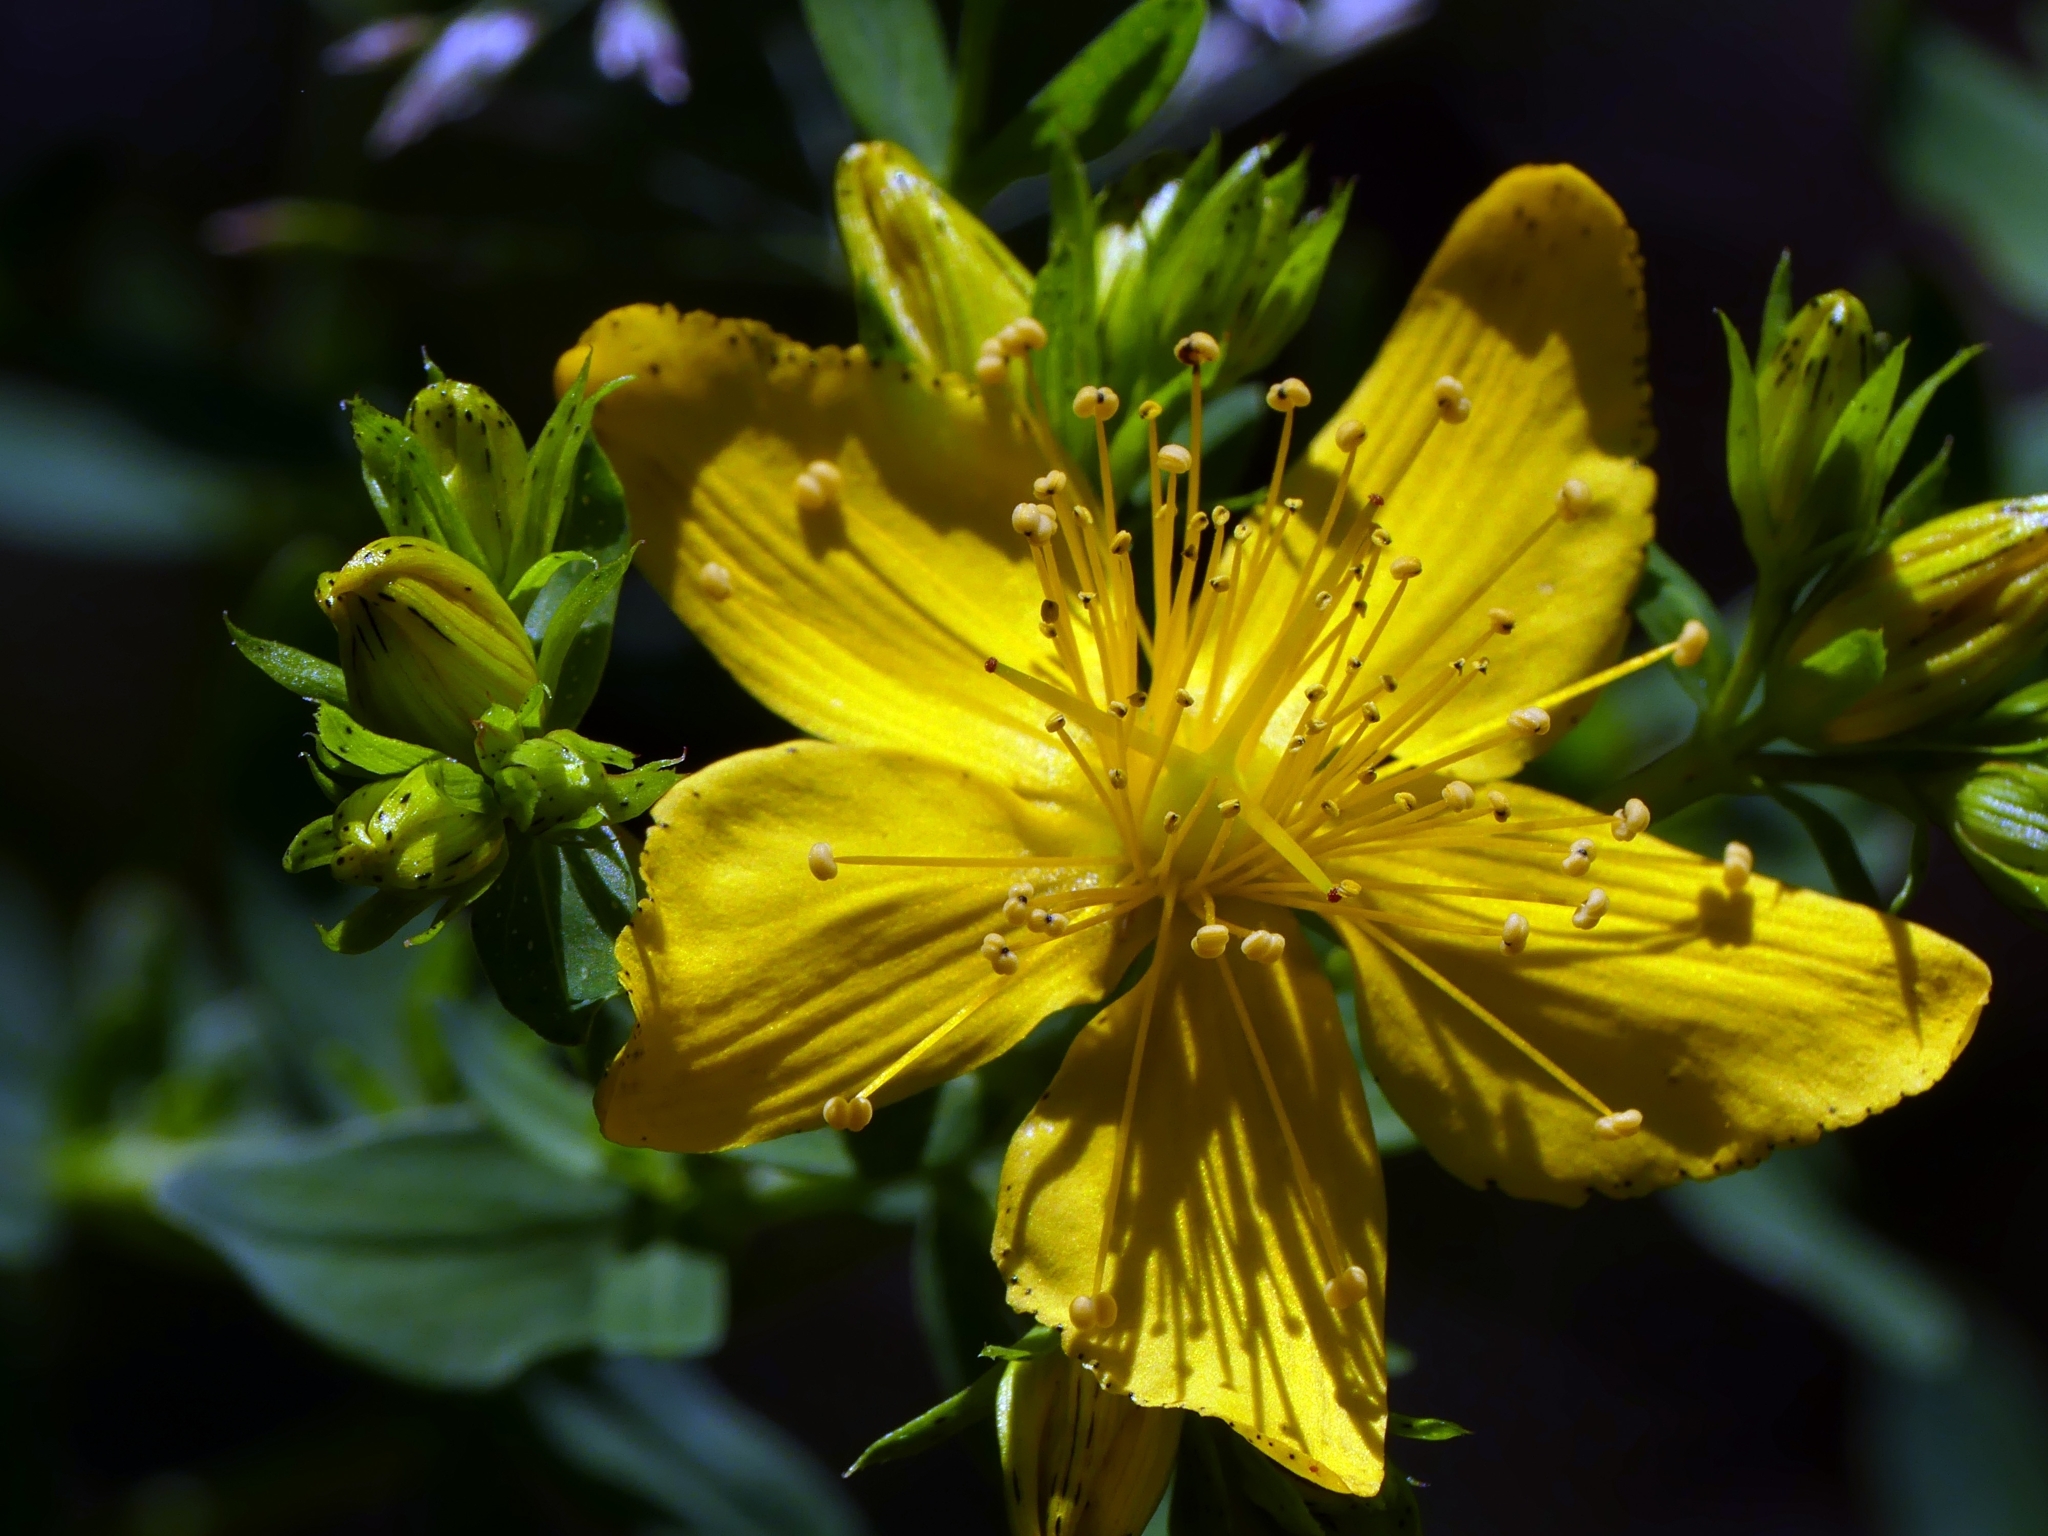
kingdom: Plantae
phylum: Tracheophyta
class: Magnoliopsida
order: Malpighiales
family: Hypericaceae
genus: Hypericum
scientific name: Hypericum perforatum
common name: Common st. johnswort
